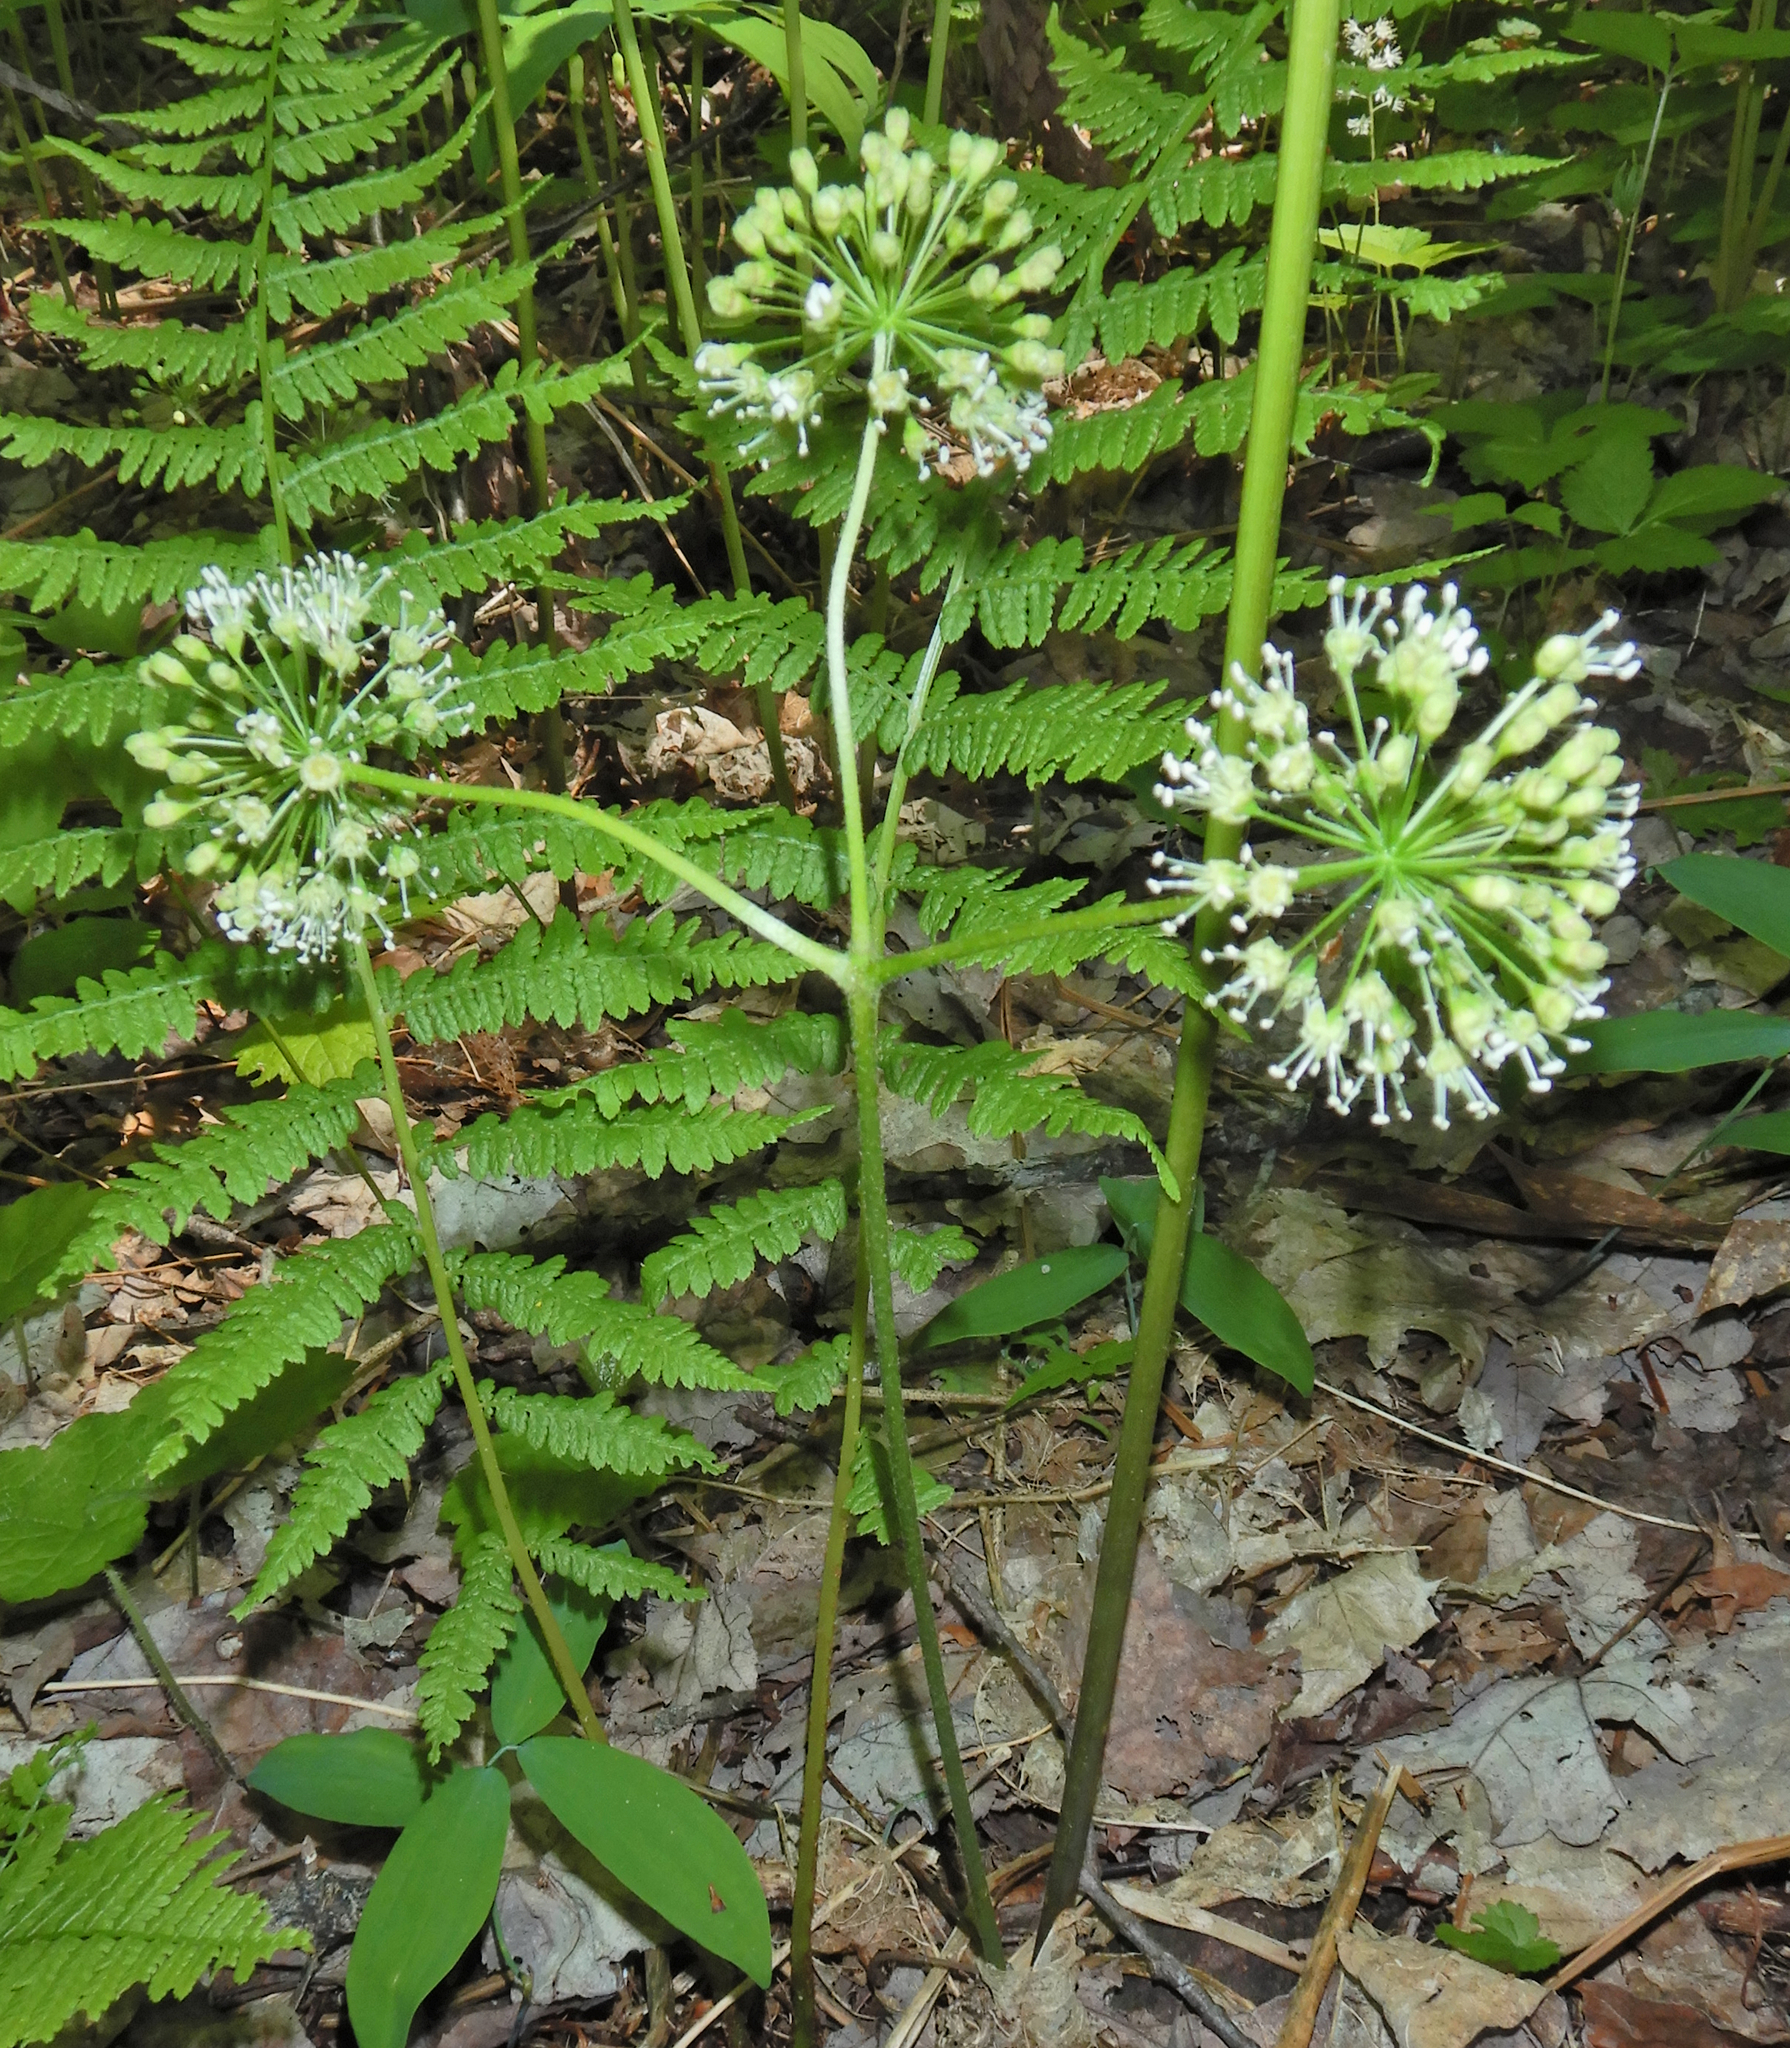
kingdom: Plantae
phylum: Tracheophyta
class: Magnoliopsida
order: Apiales
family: Araliaceae
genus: Aralia
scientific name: Aralia nudicaulis
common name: Wild sarsaparilla
